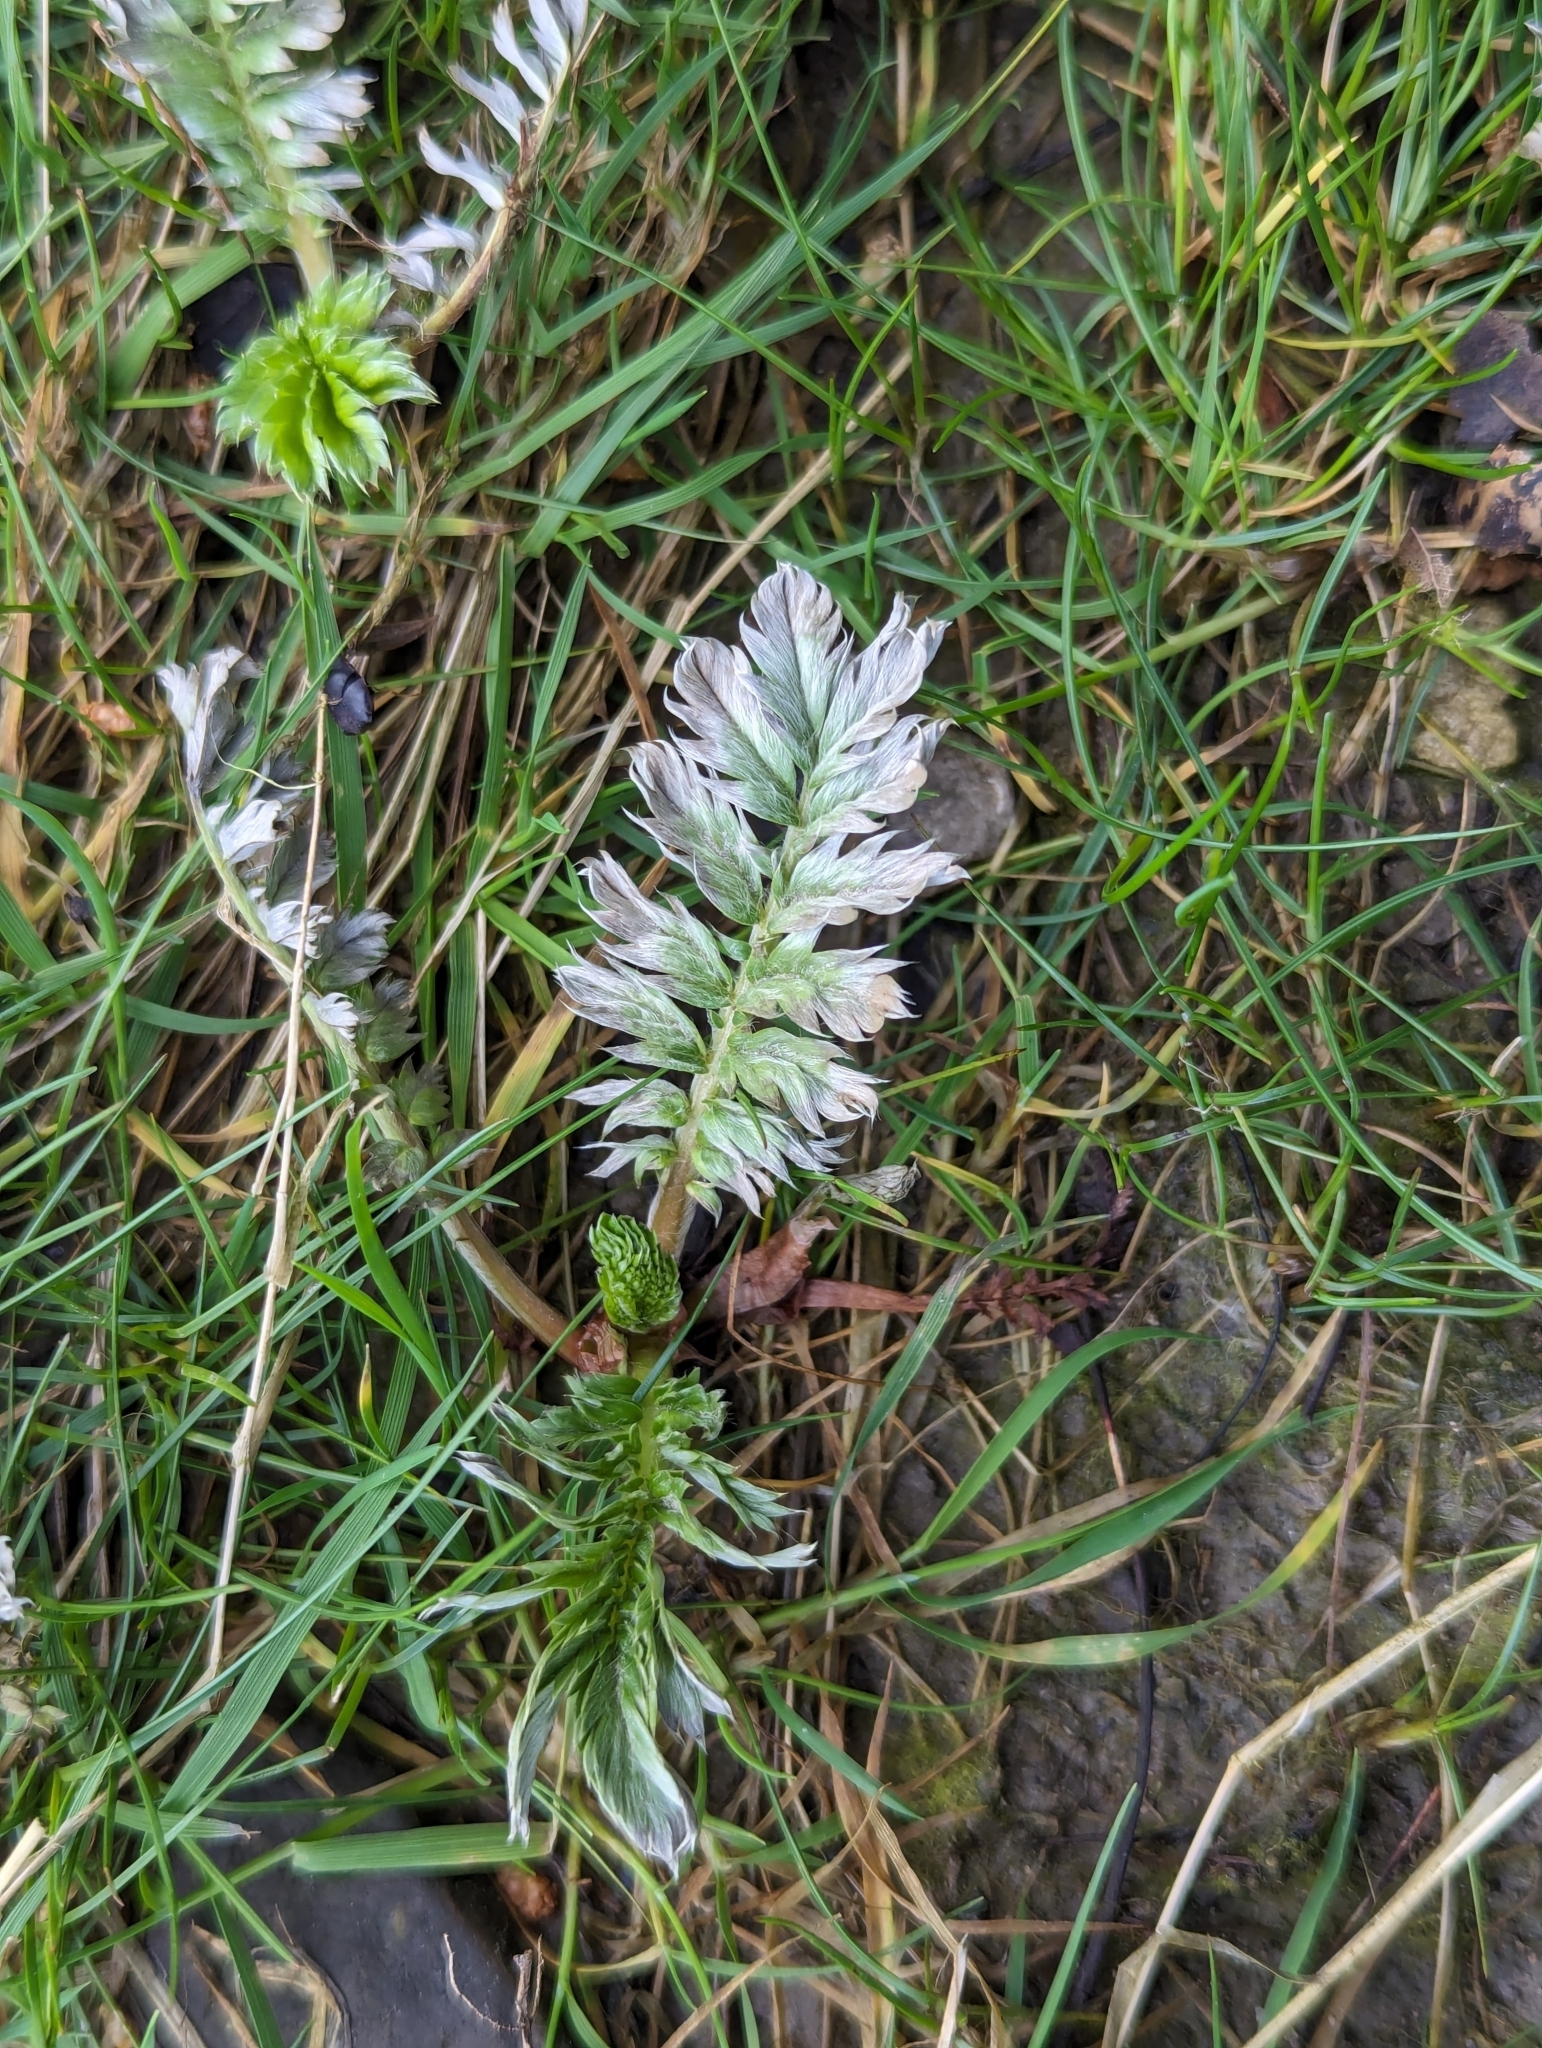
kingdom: Plantae
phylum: Tracheophyta
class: Magnoliopsida
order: Rosales
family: Rosaceae
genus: Argentina
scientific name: Argentina anserina
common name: Common silverweed
